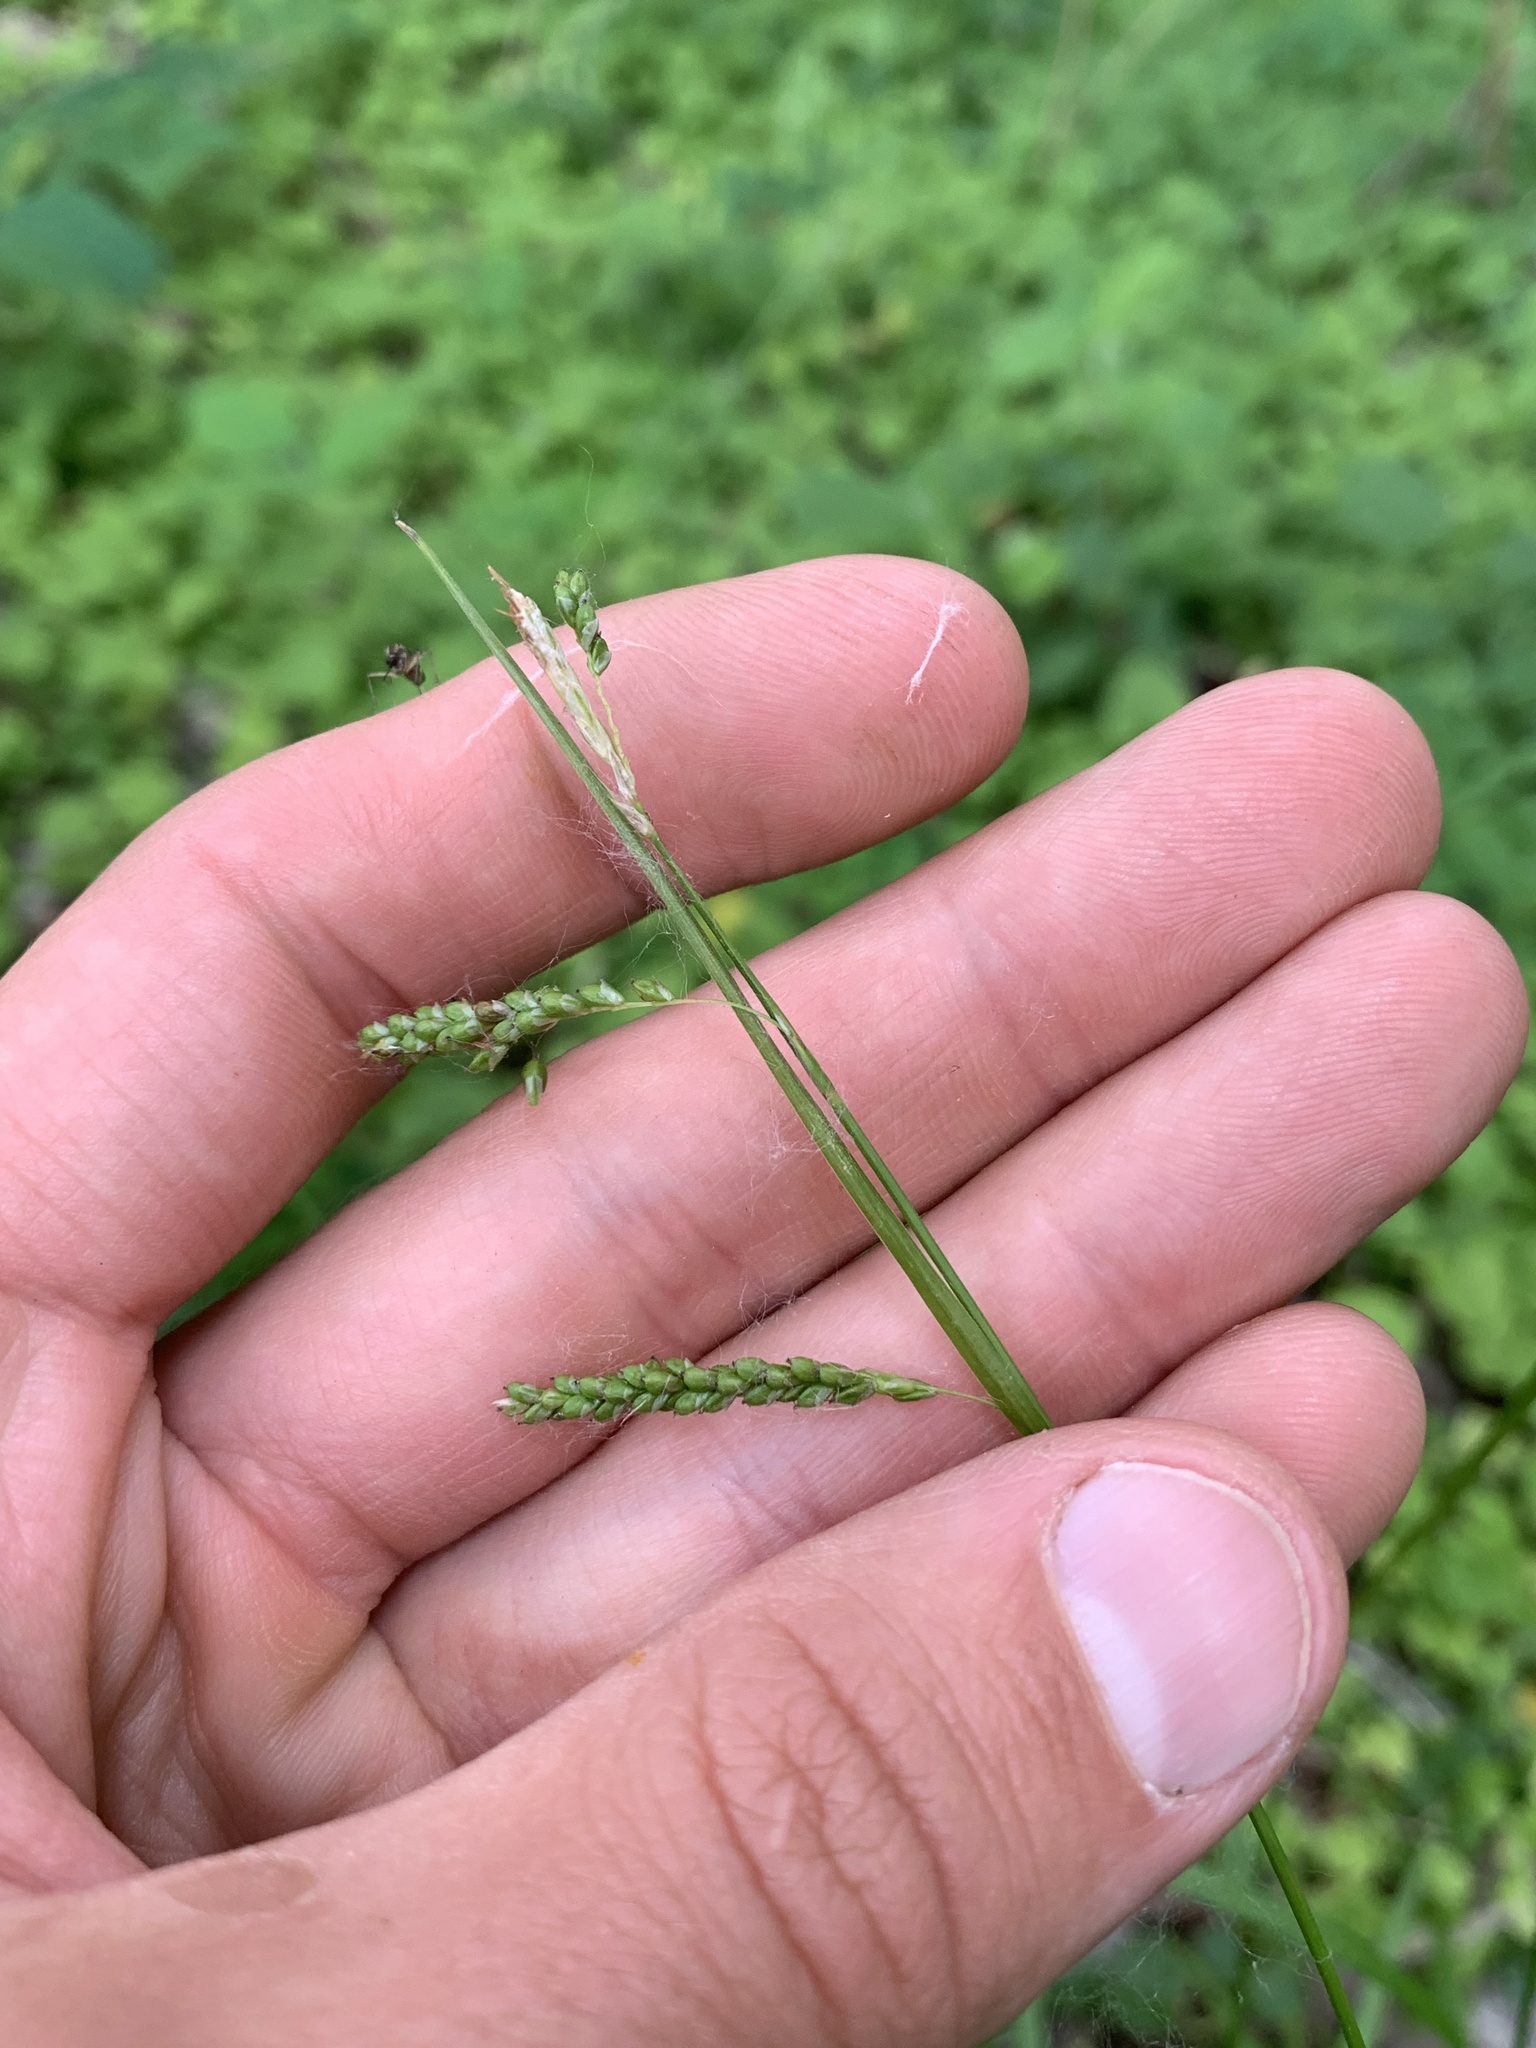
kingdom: Plantae
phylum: Tracheophyta
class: Liliopsida
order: Poales
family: Cyperaceae
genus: Carex
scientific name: Carex gracillima
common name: Graceful sedge
